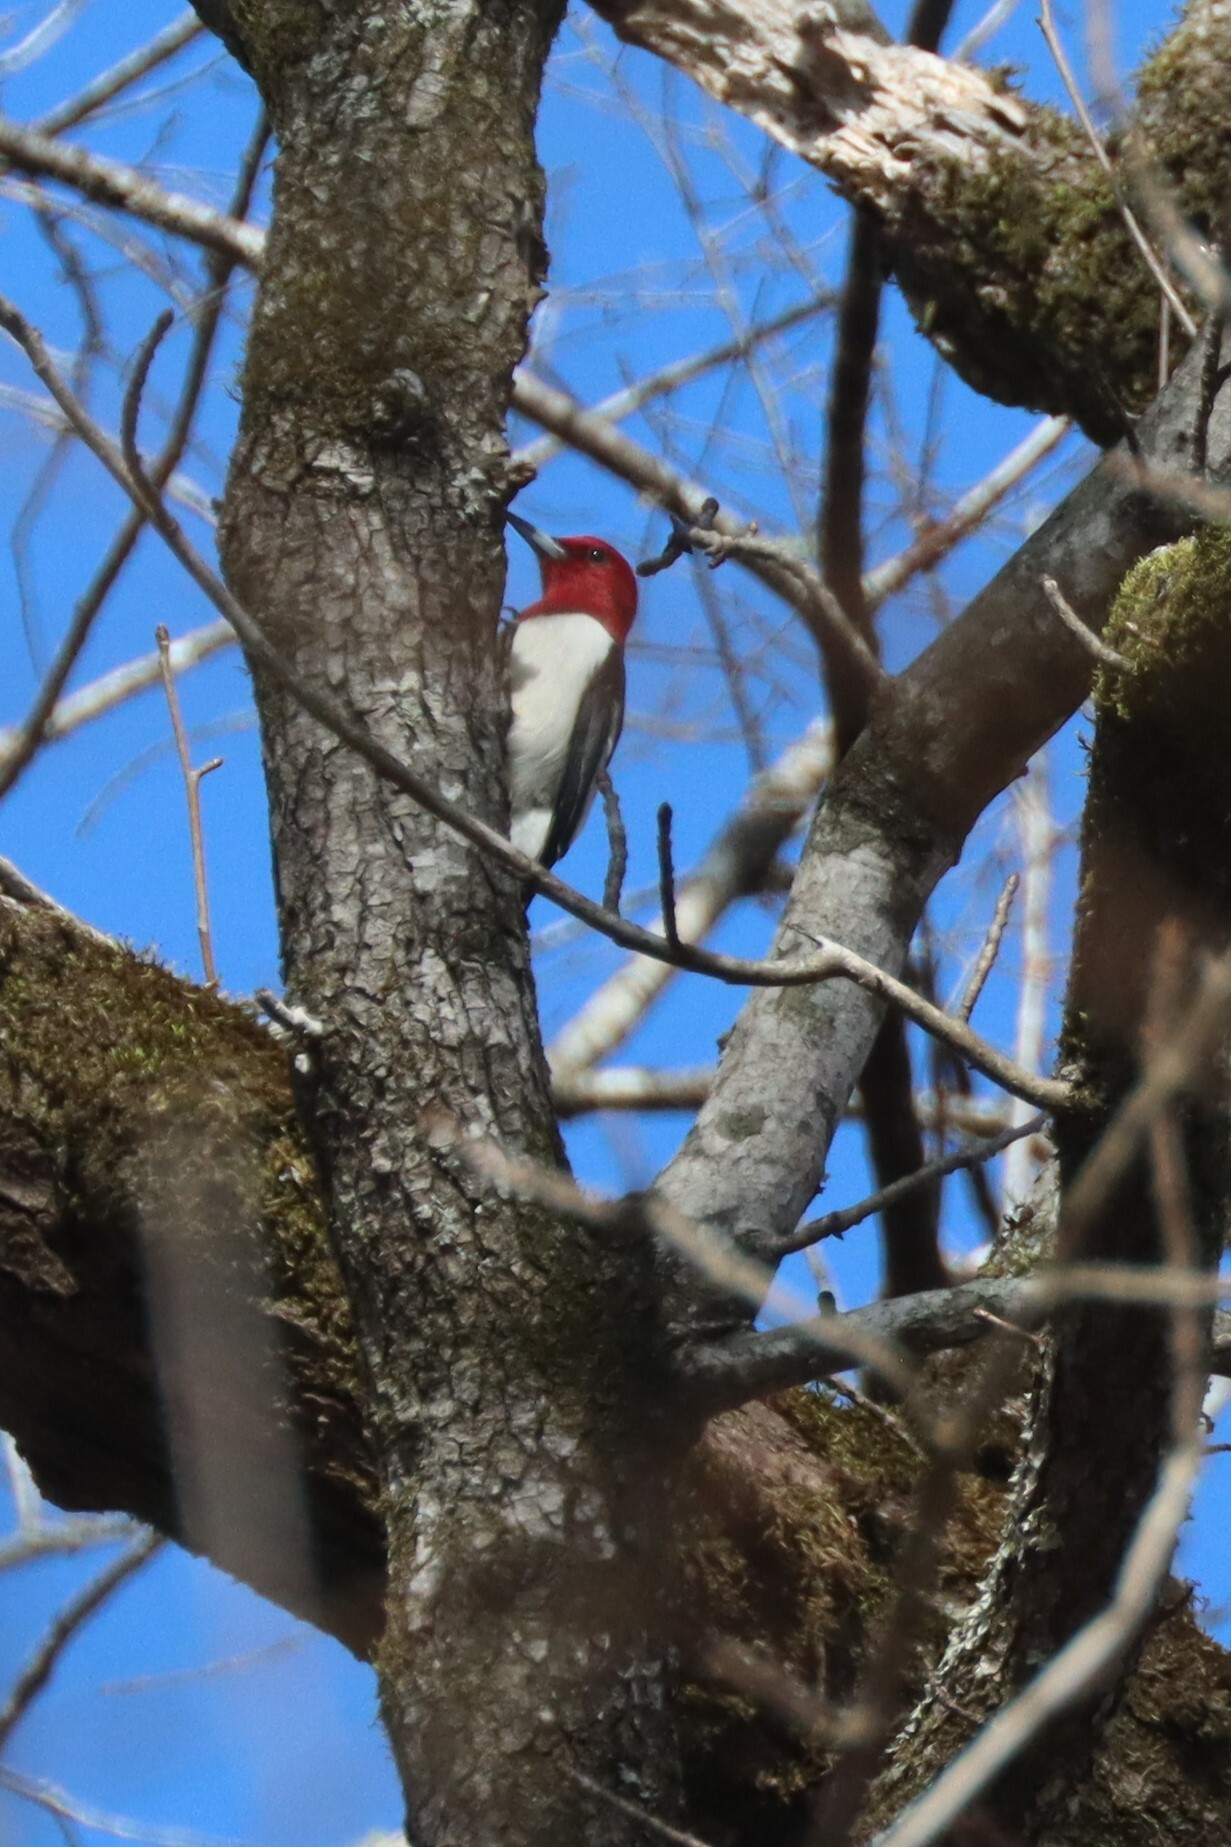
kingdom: Animalia
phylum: Chordata
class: Aves
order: Piciformes
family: Picidae
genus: Melanerpes
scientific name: Melanerpes erythrocephalus
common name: Red-headed woodpecker
